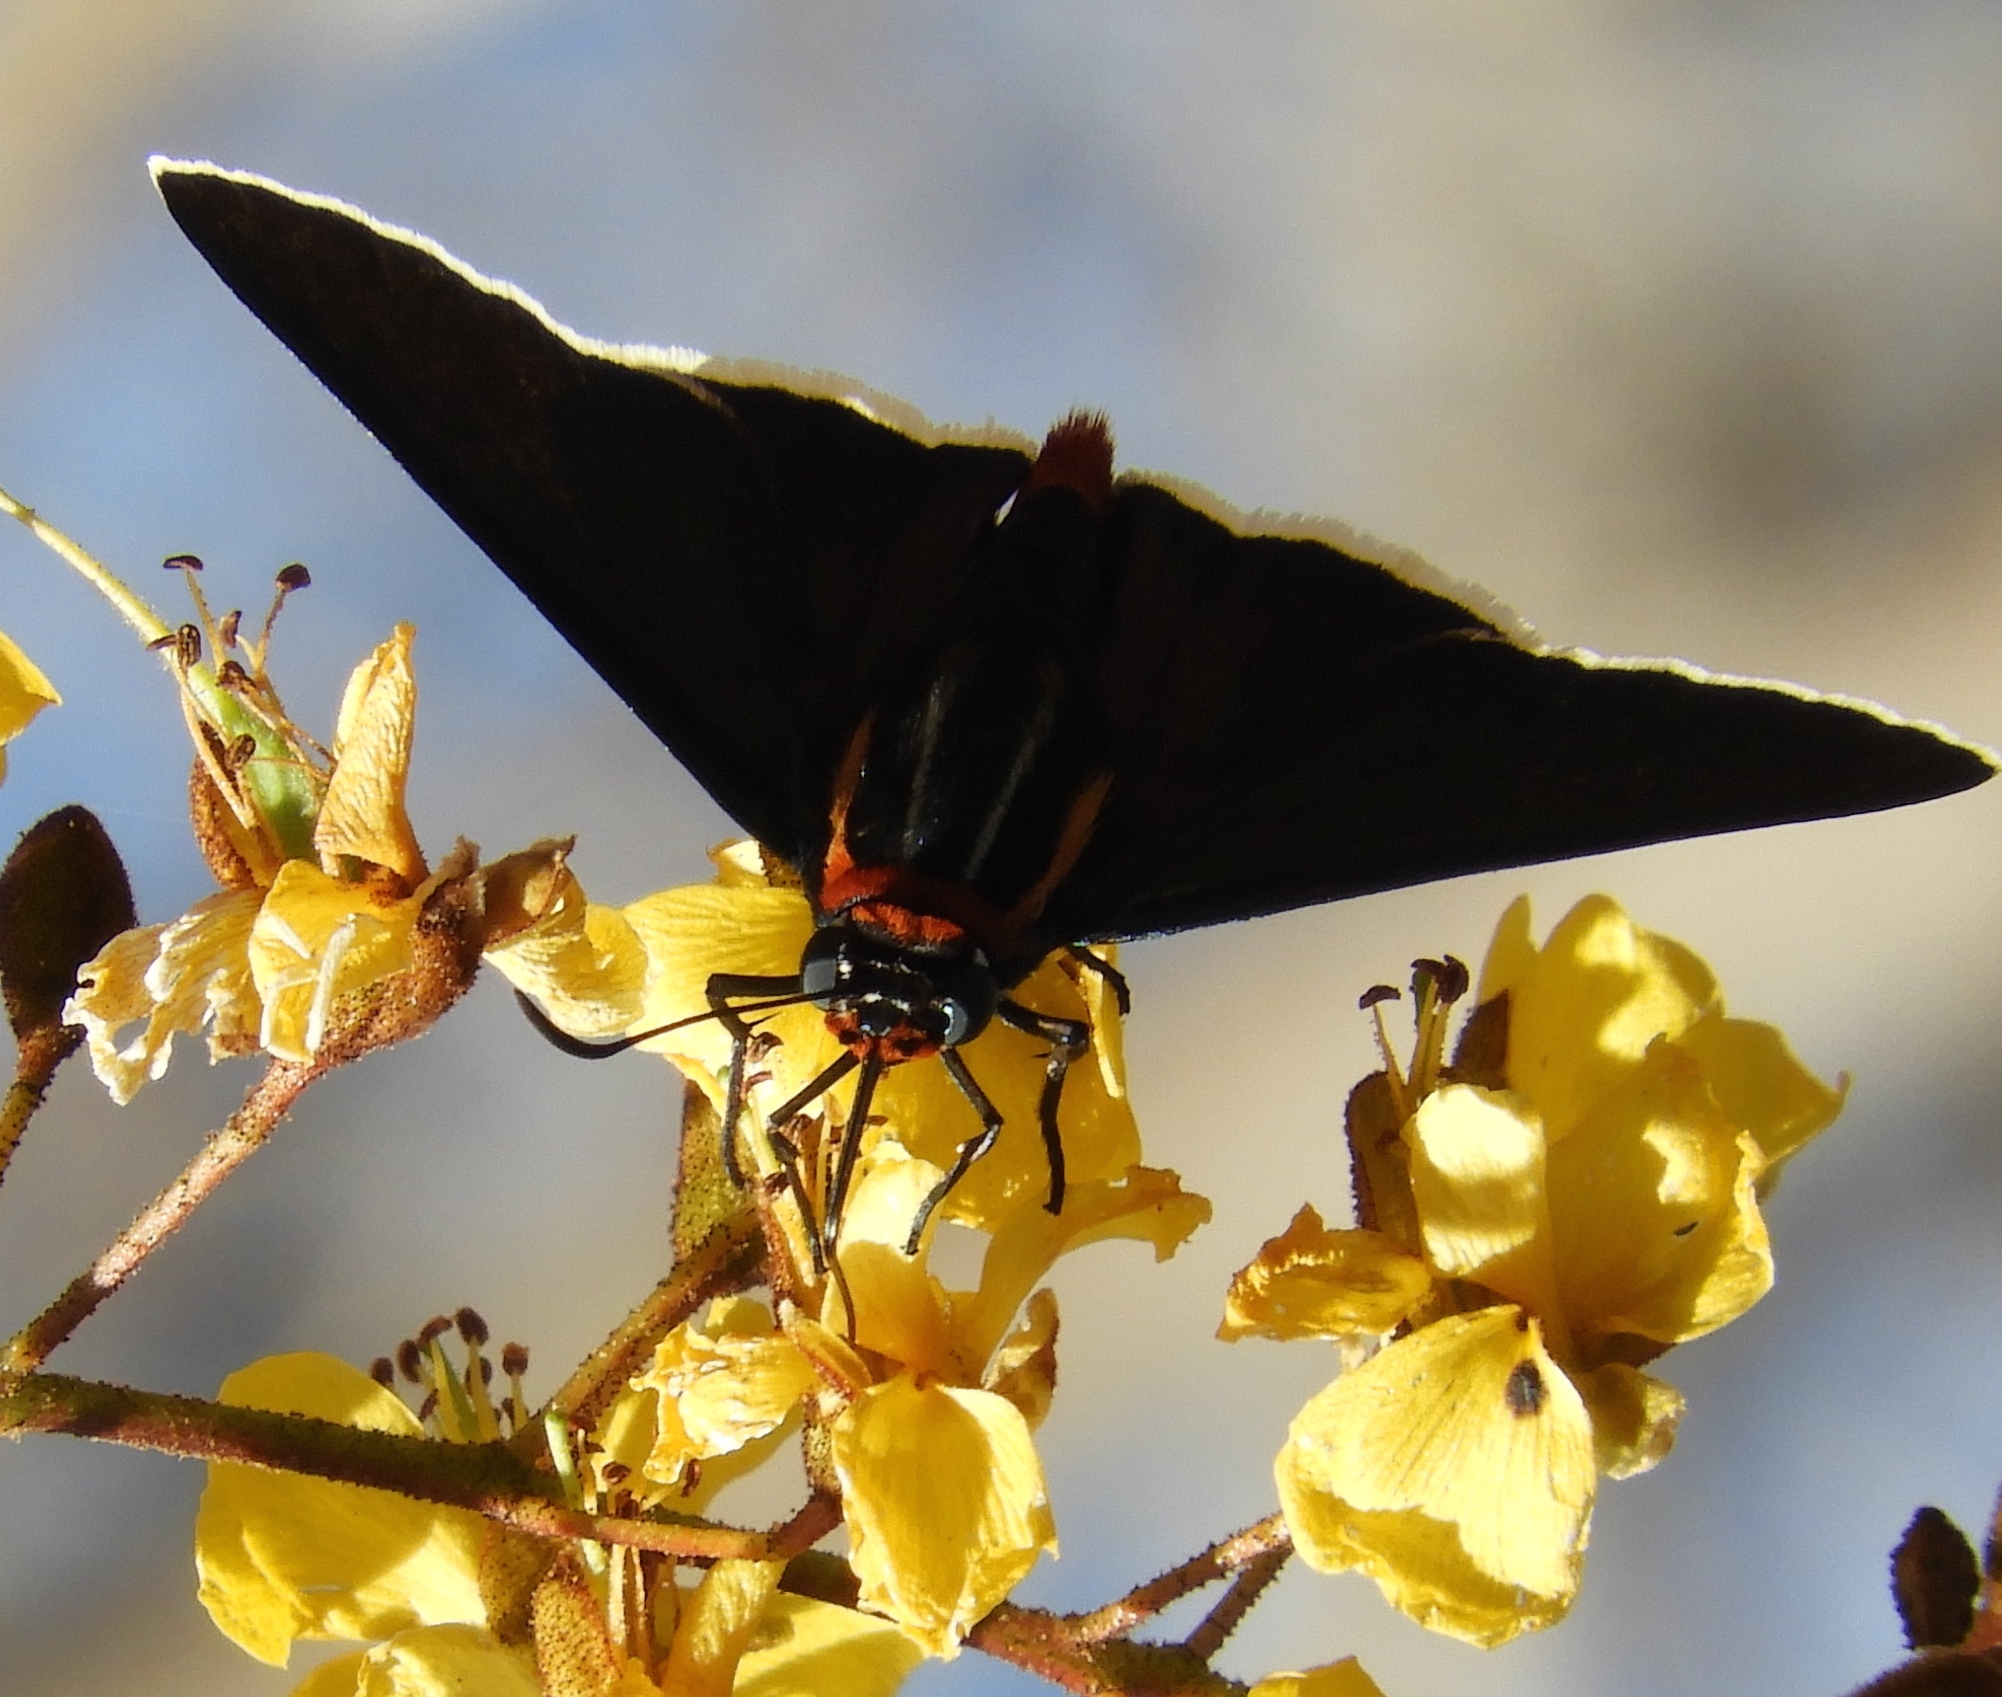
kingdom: Animalia
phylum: Arthropoda
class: Insecta
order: Lepidoptera
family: Hesperiidae
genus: Elbella
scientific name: Elbella scylla
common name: Scylla firetip
